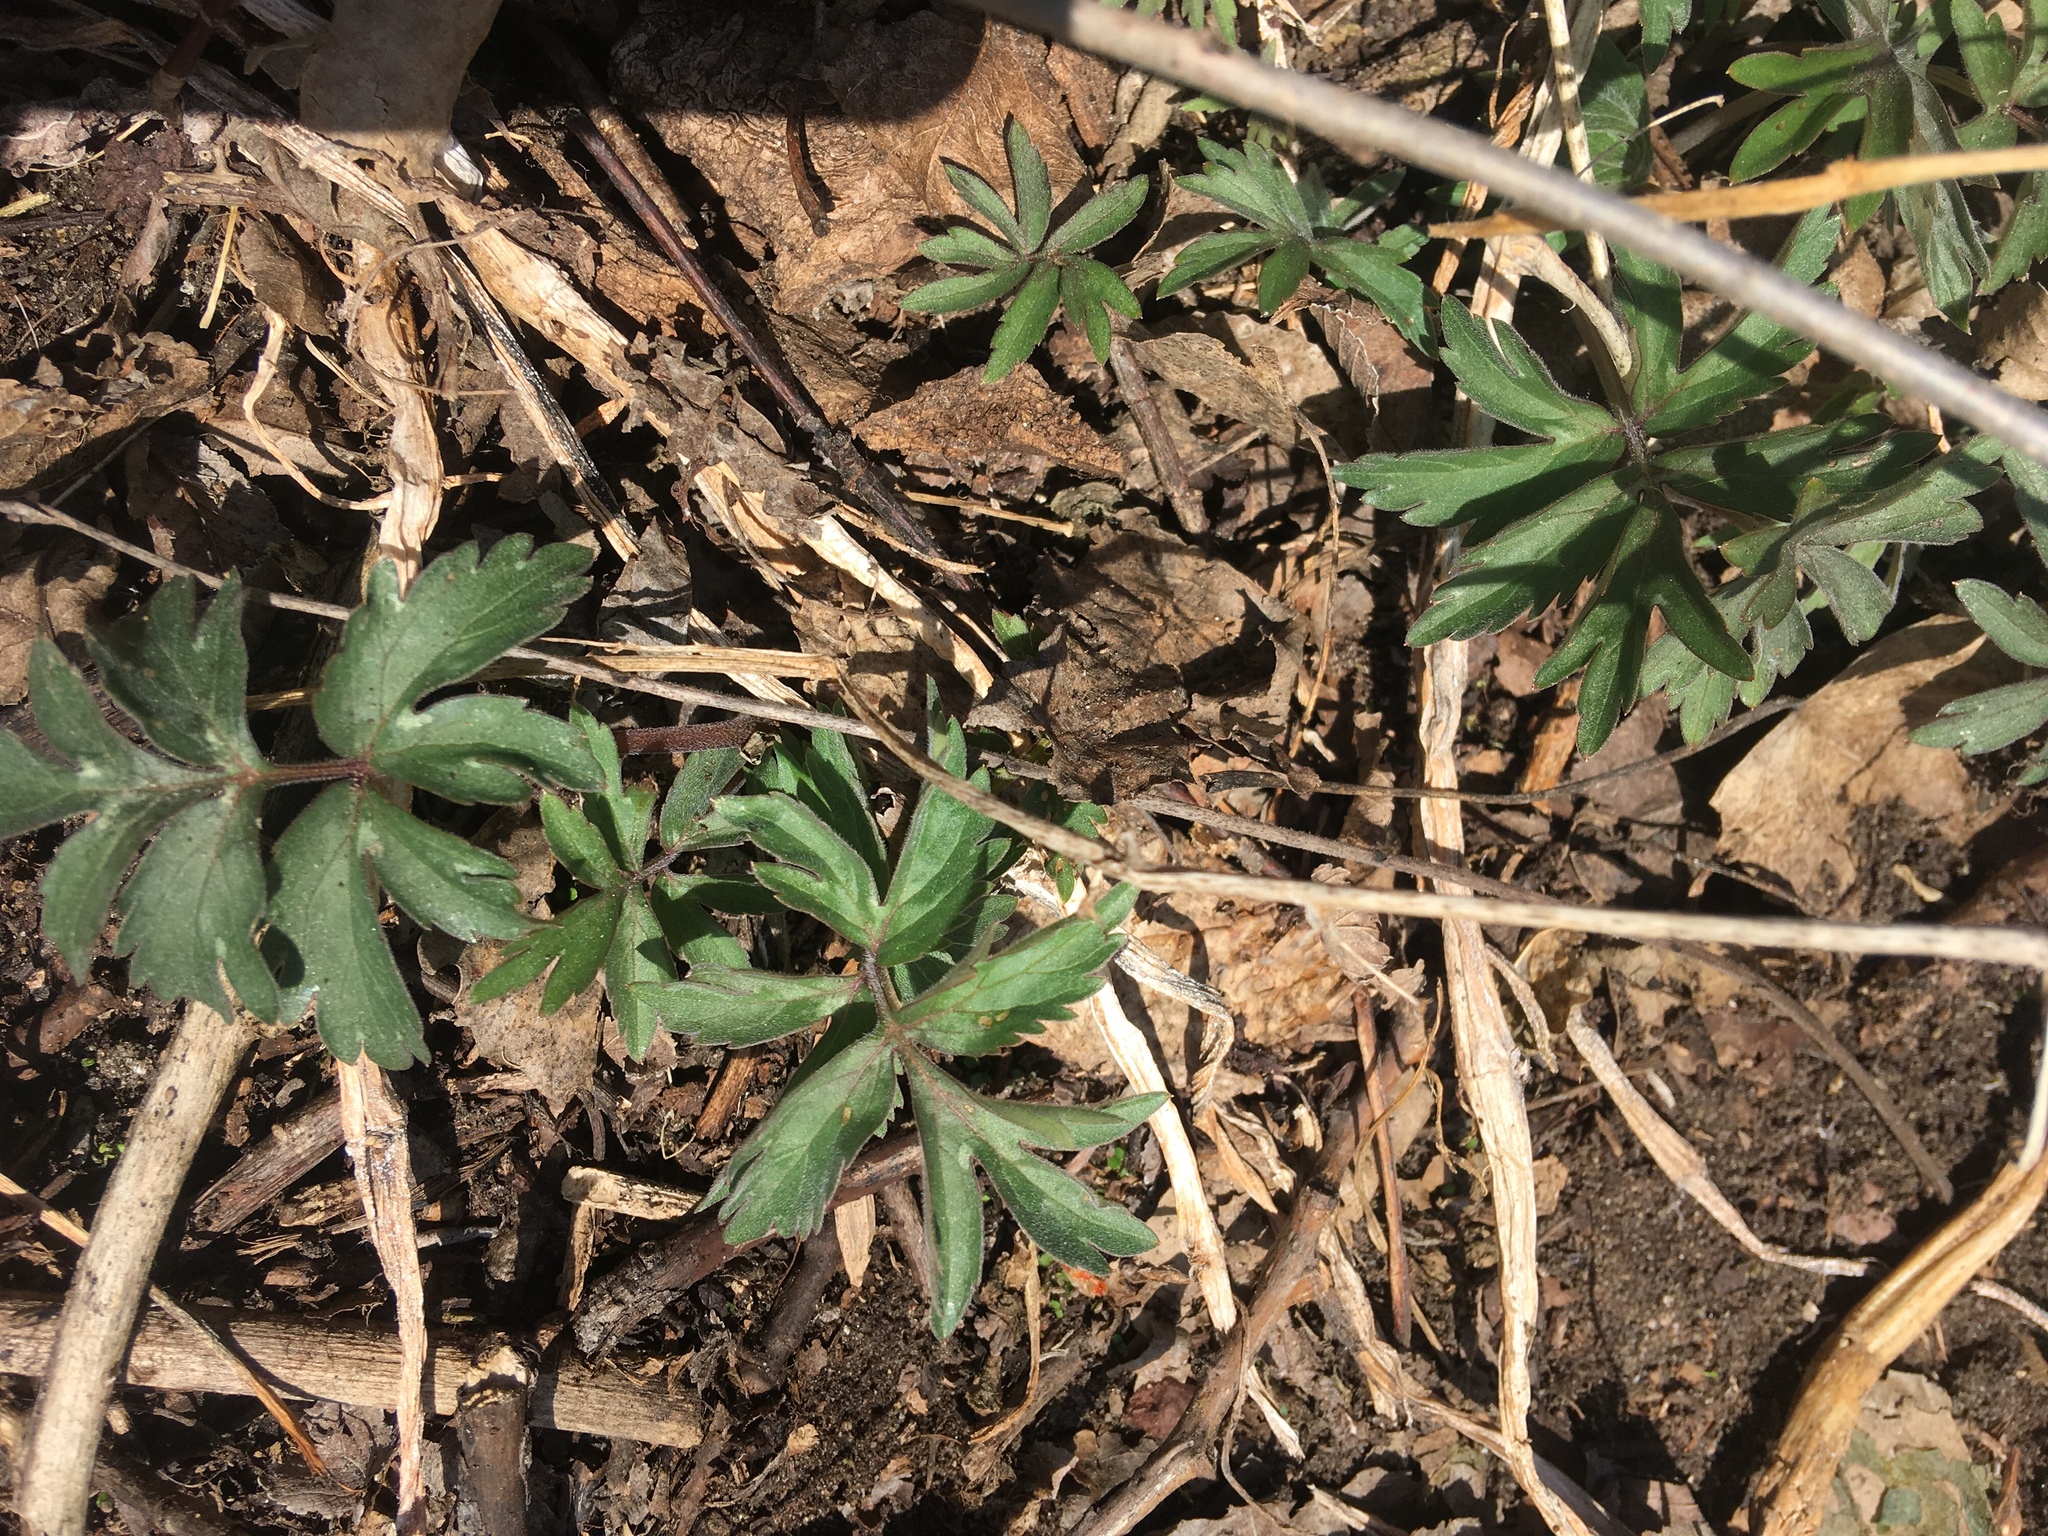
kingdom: Plantae
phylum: Tracheophyta
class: Magnoliopsida
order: Boraginales
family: Hydrophyllaceae
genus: Hydrophyllum
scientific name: Hydrophyllum virginianum
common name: Virginia waterleaf
